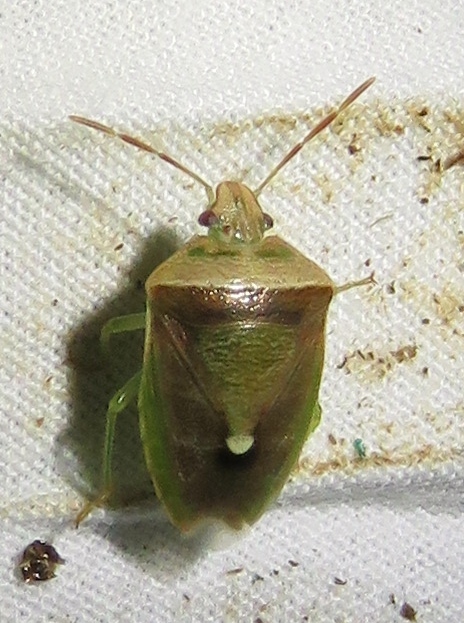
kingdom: Animalia
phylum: Arthropoda
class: Insecta
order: Hemiptera
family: Pentatomidae
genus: Banasa
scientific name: Banasa dimidiata
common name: Green burgundy stink bug
